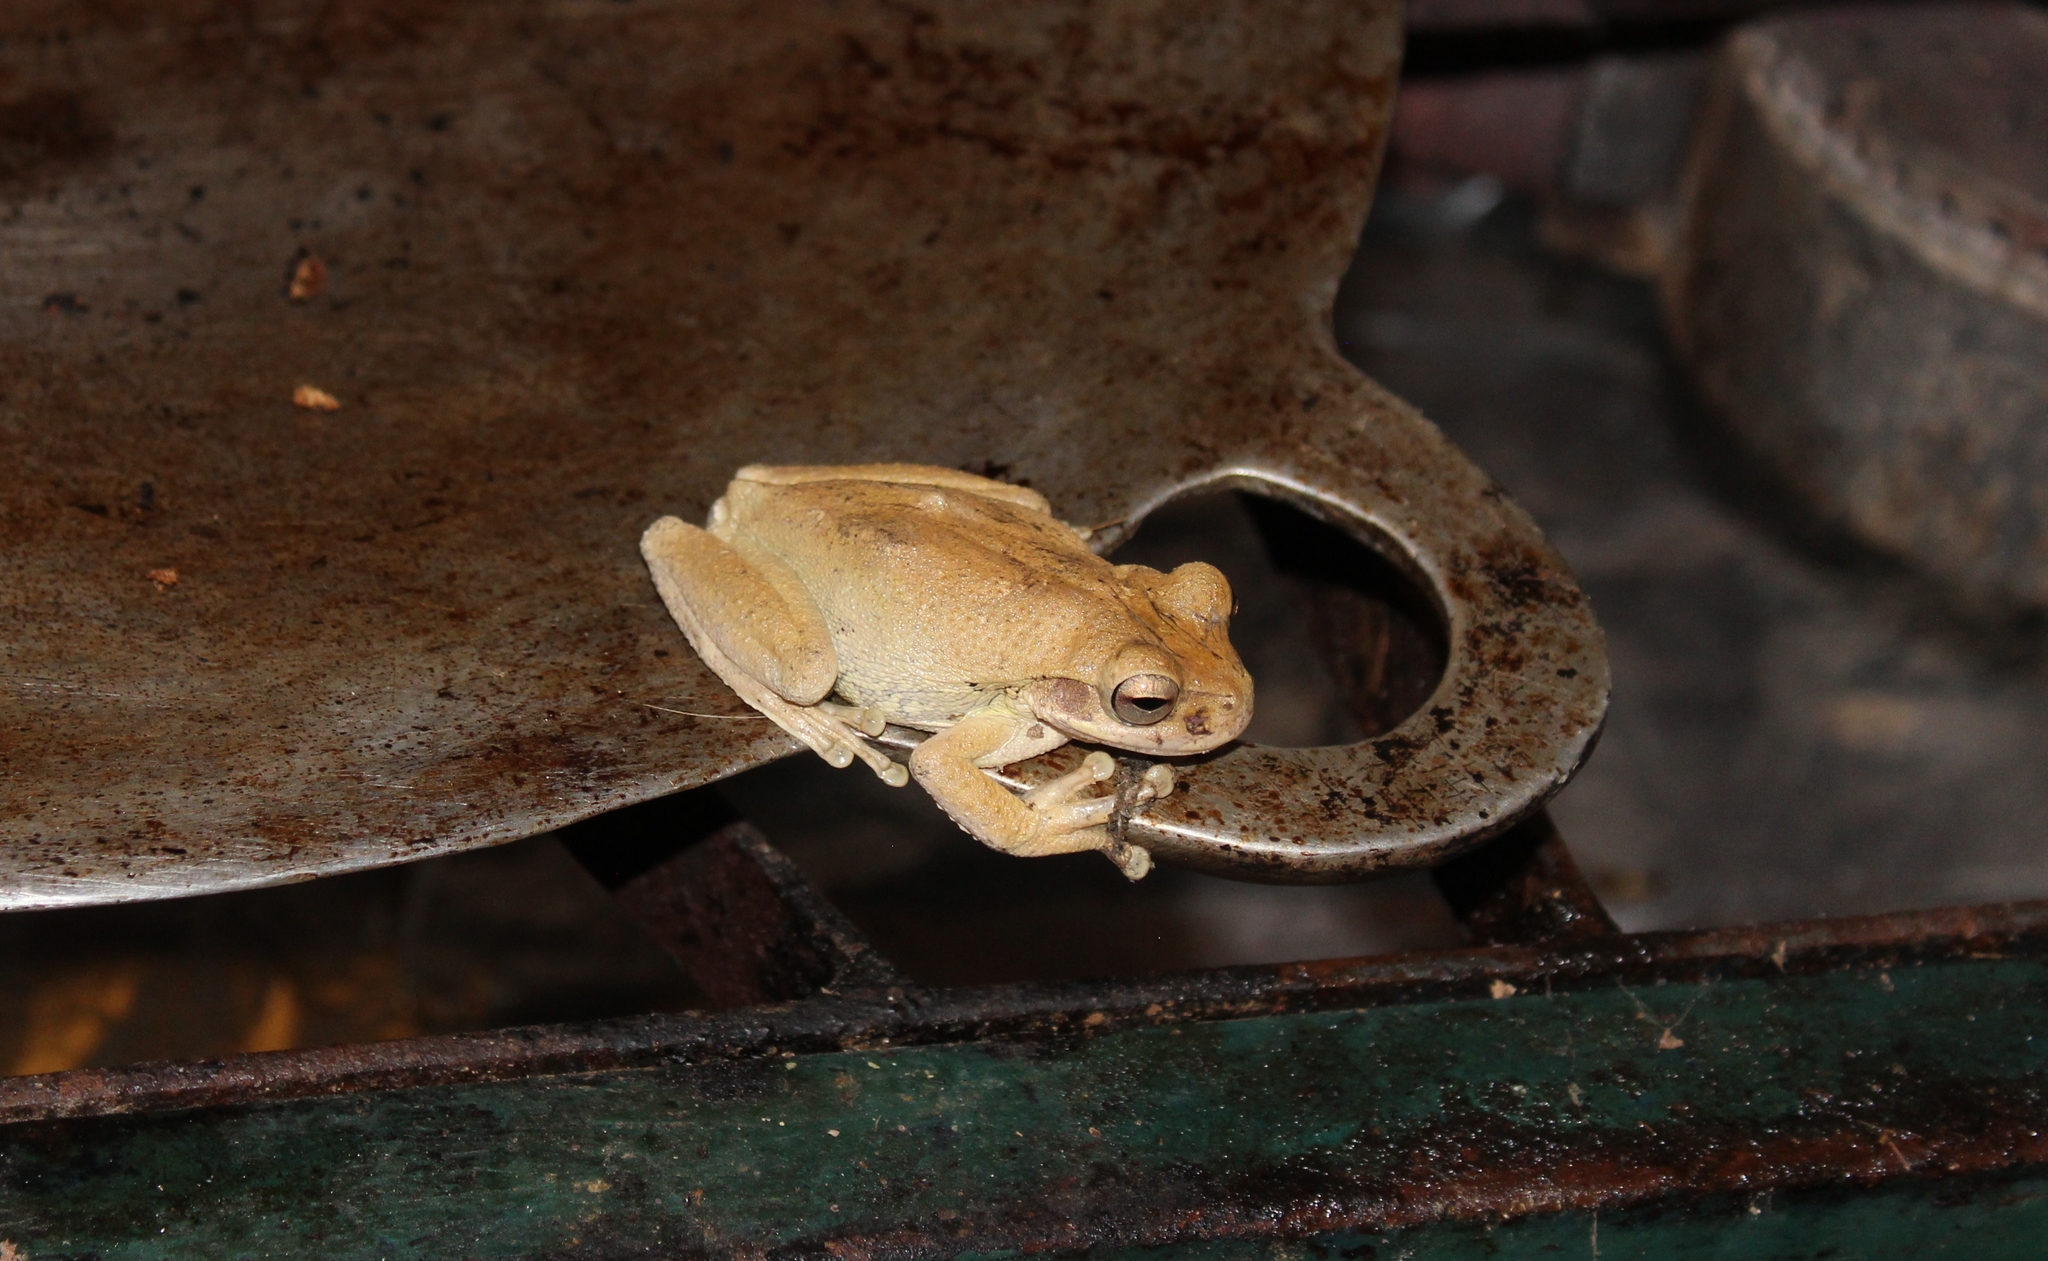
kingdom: Animalia
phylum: Chordata
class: Amphibia
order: Anura
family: Hylidae
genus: Smilisca
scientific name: Smilisca baudinii
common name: Mexican smilisca
